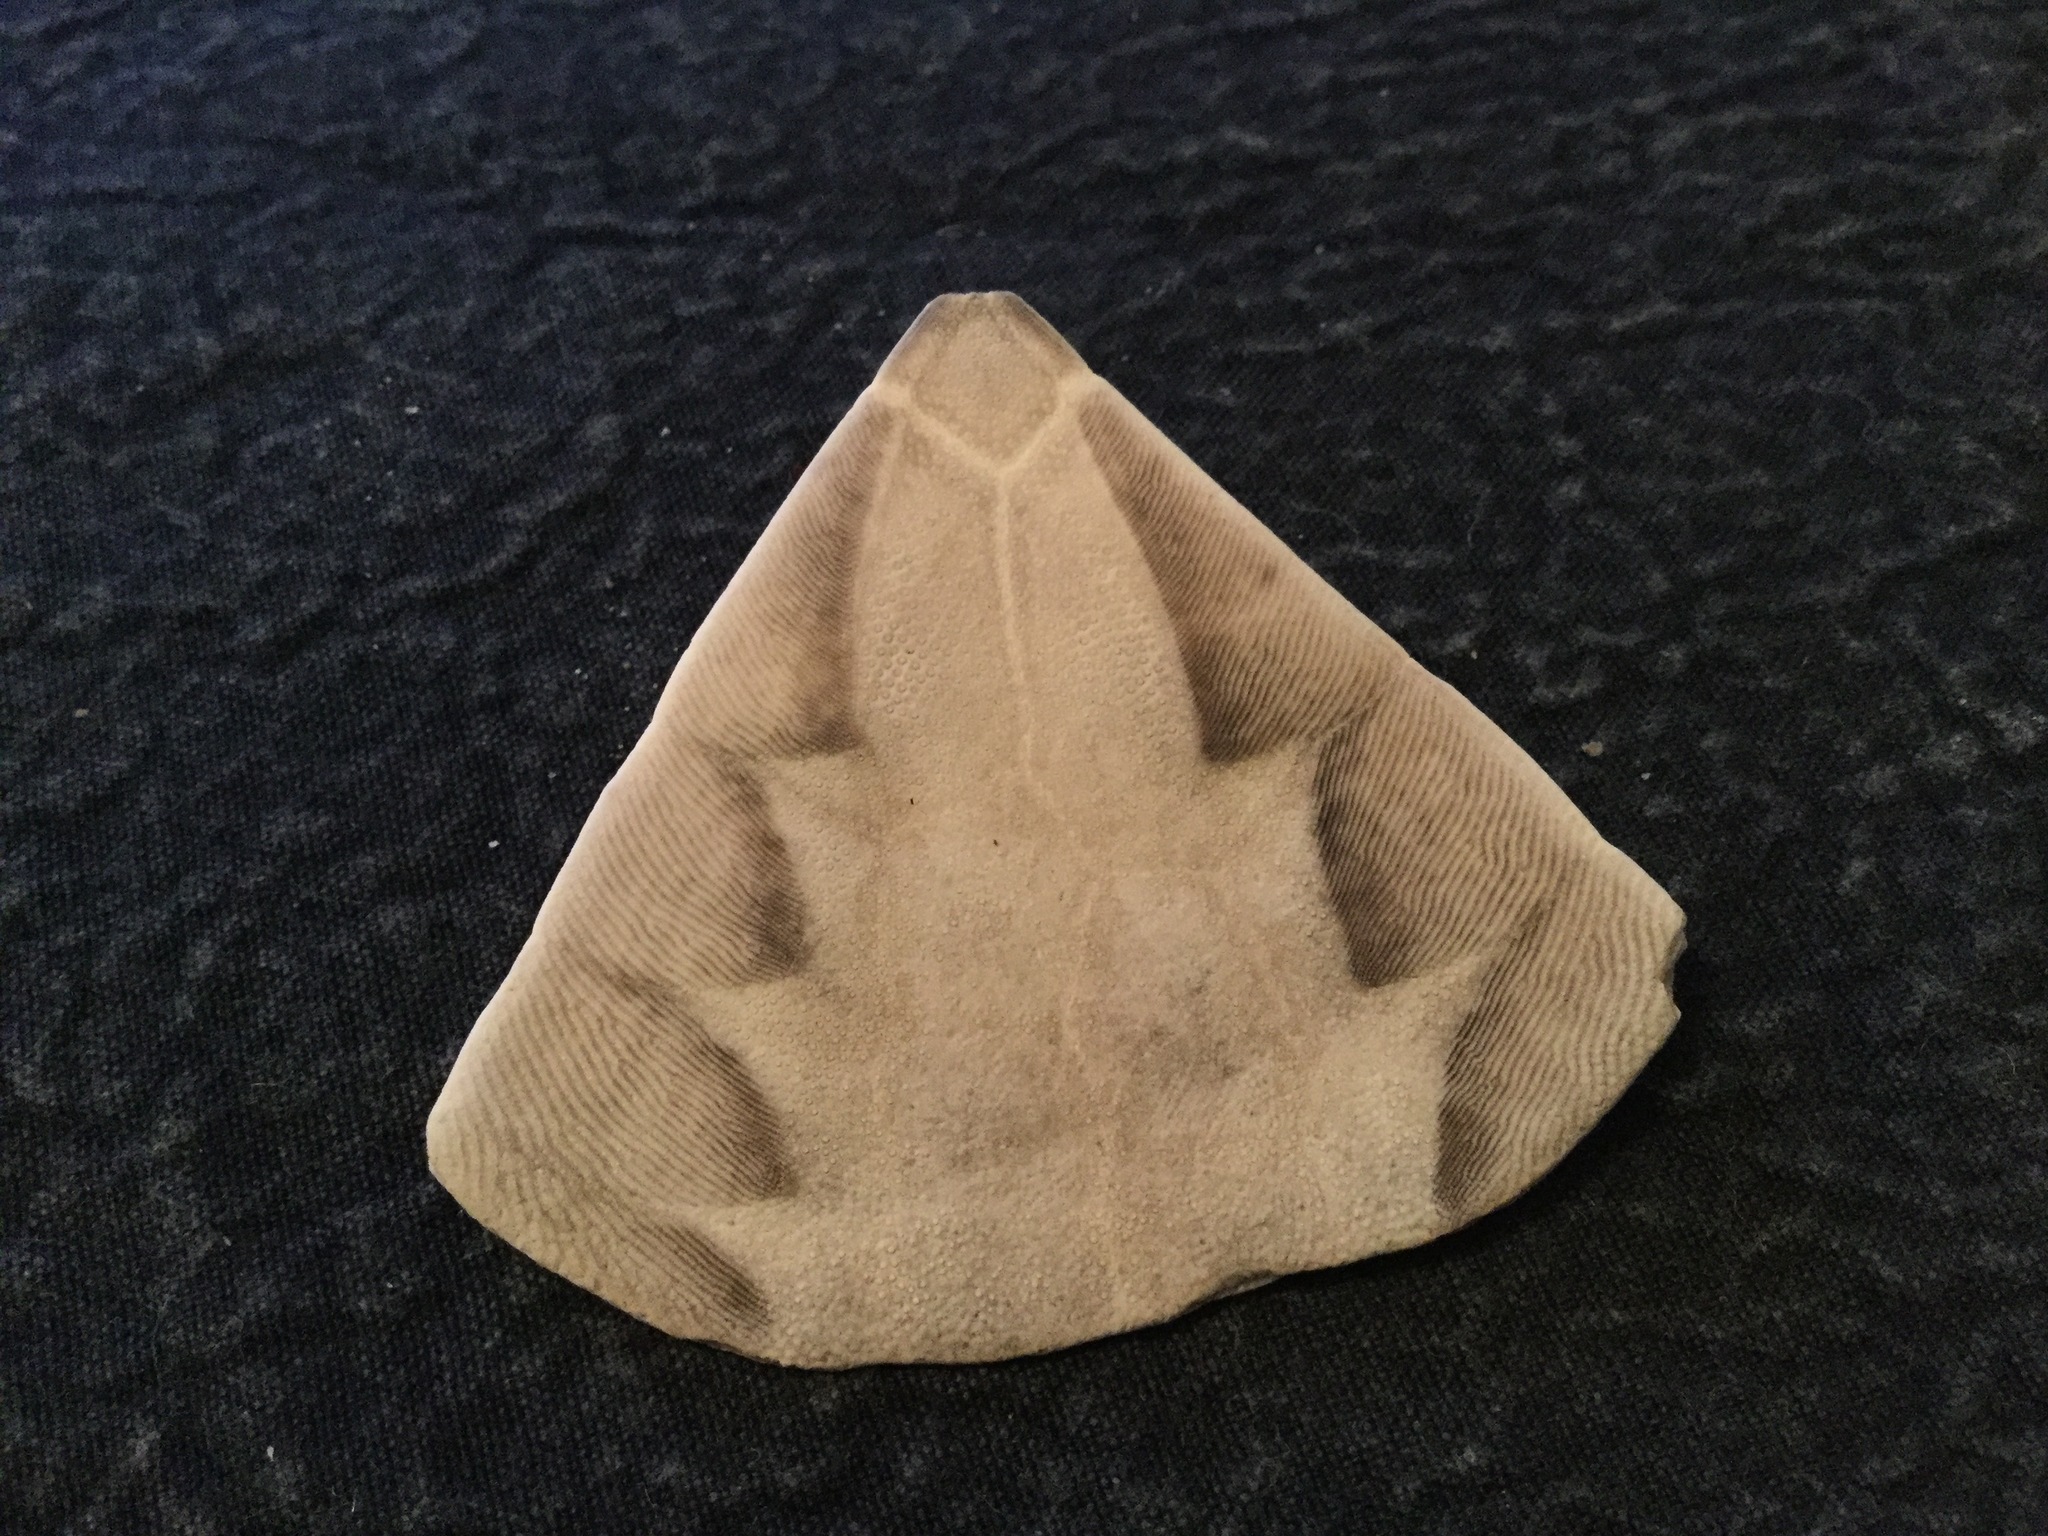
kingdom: Animalia
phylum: Echinodermata
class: Echinoidea
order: Clypeasteroida
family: Clypeasteridae
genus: Fellaster
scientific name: Fellaster zelandiae
